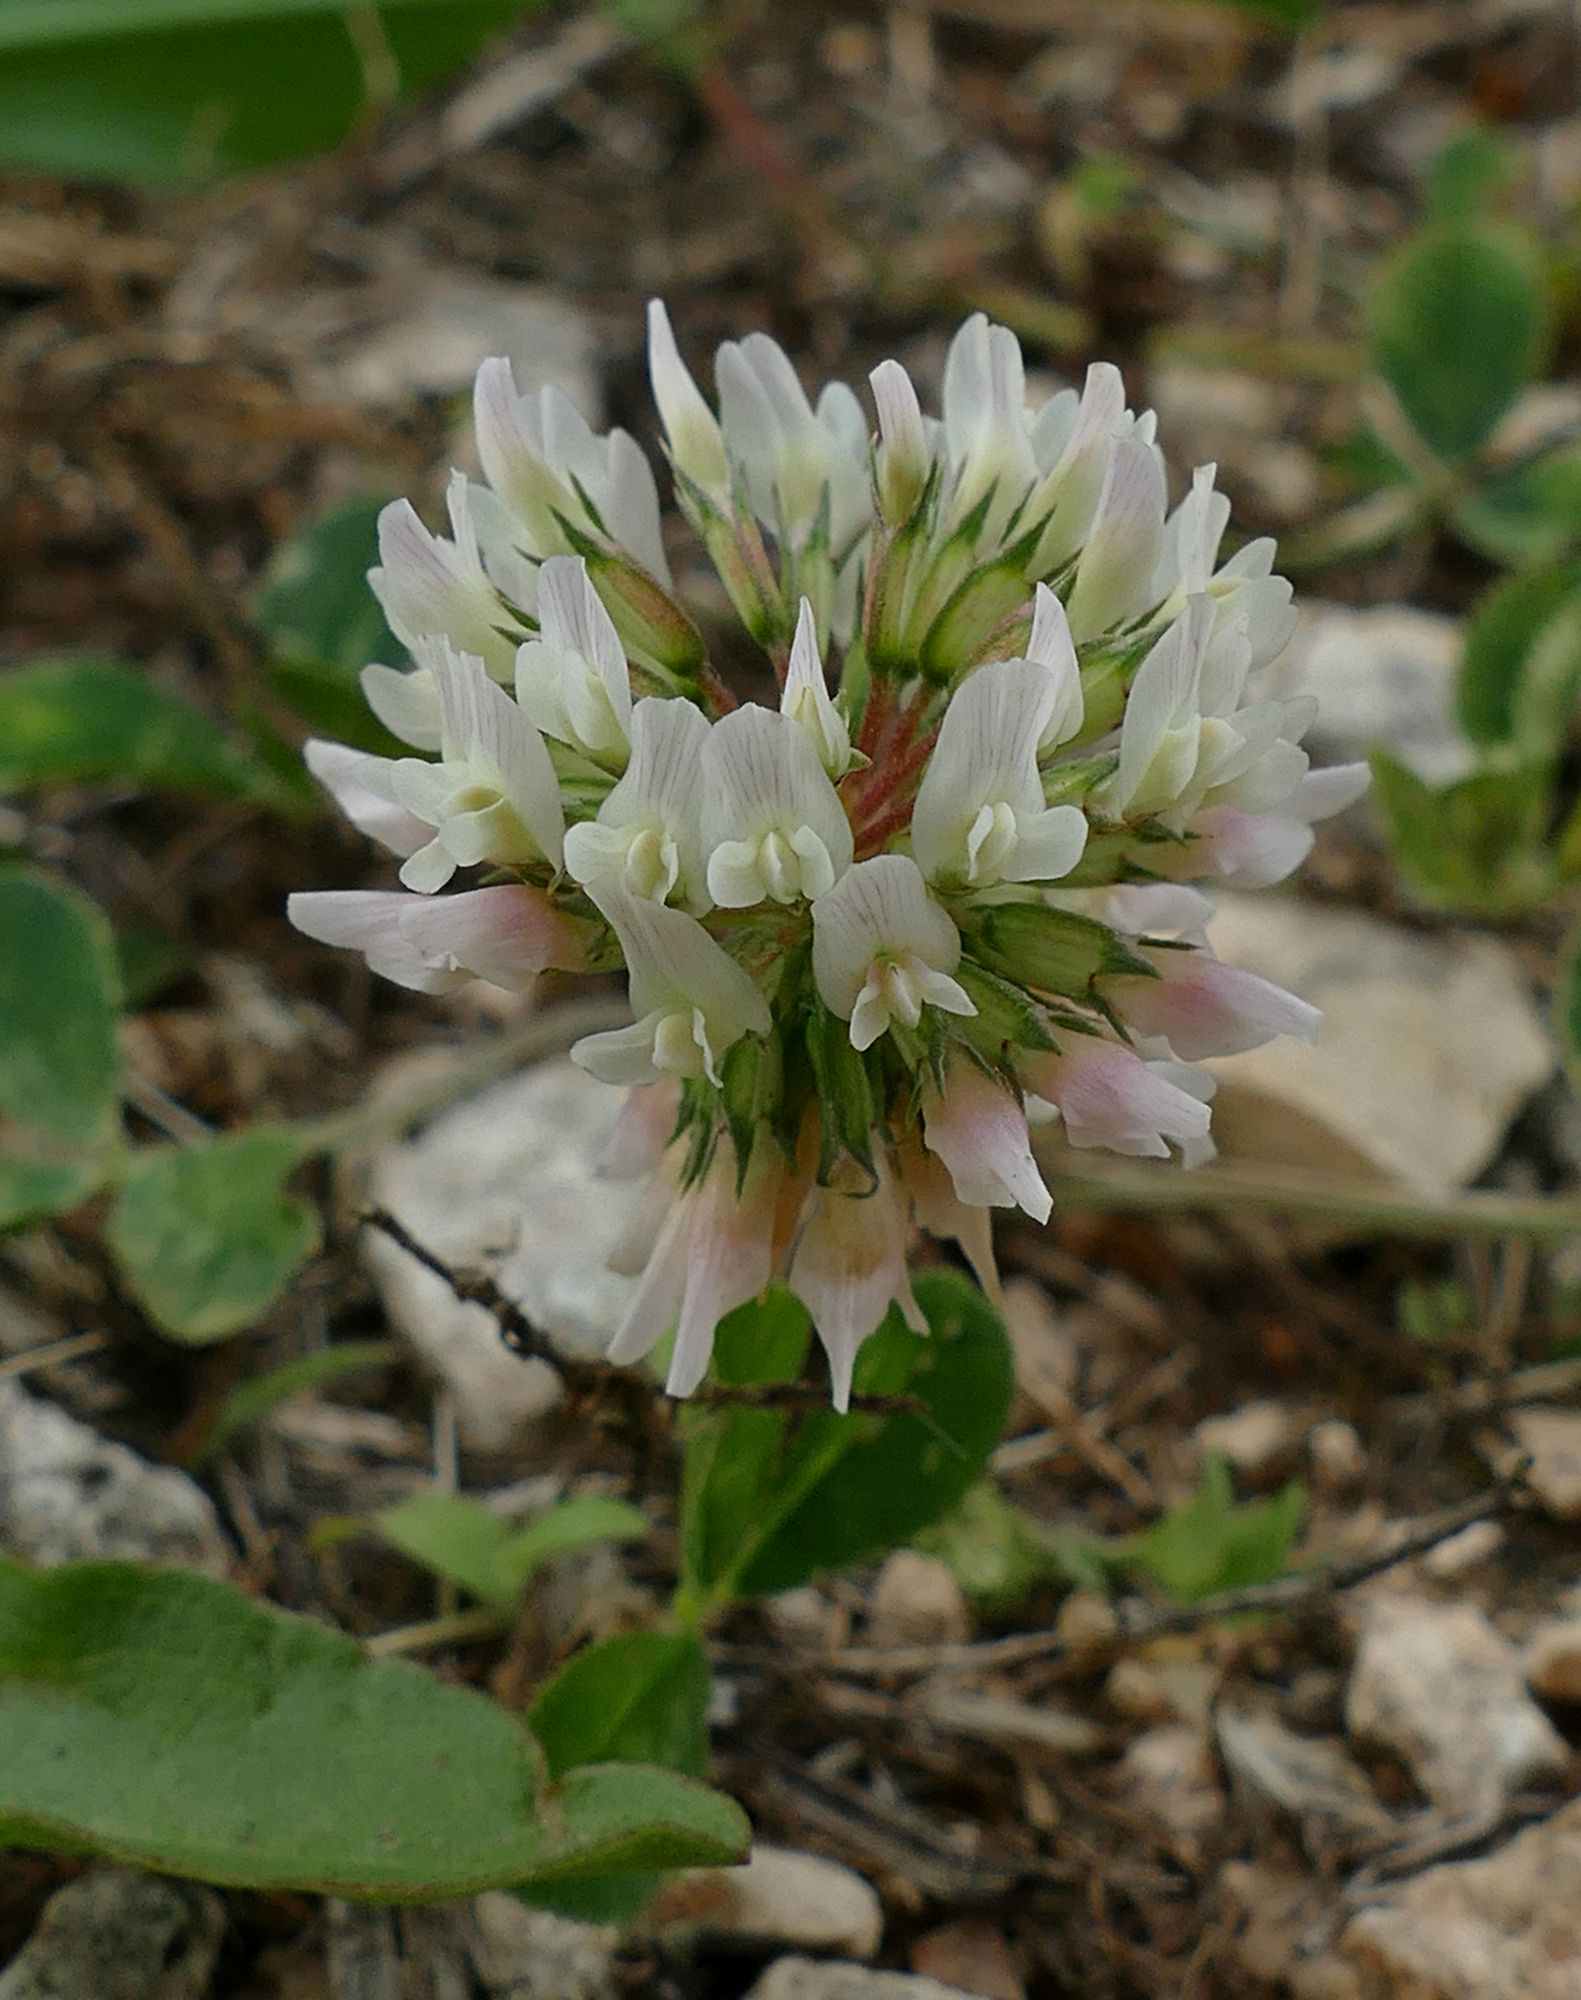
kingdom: Plantae
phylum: Tracheophyta
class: Magnoliopsida
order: Fabales
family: Fabaceae
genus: Trifolium
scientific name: Trifolium repens
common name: White clover
